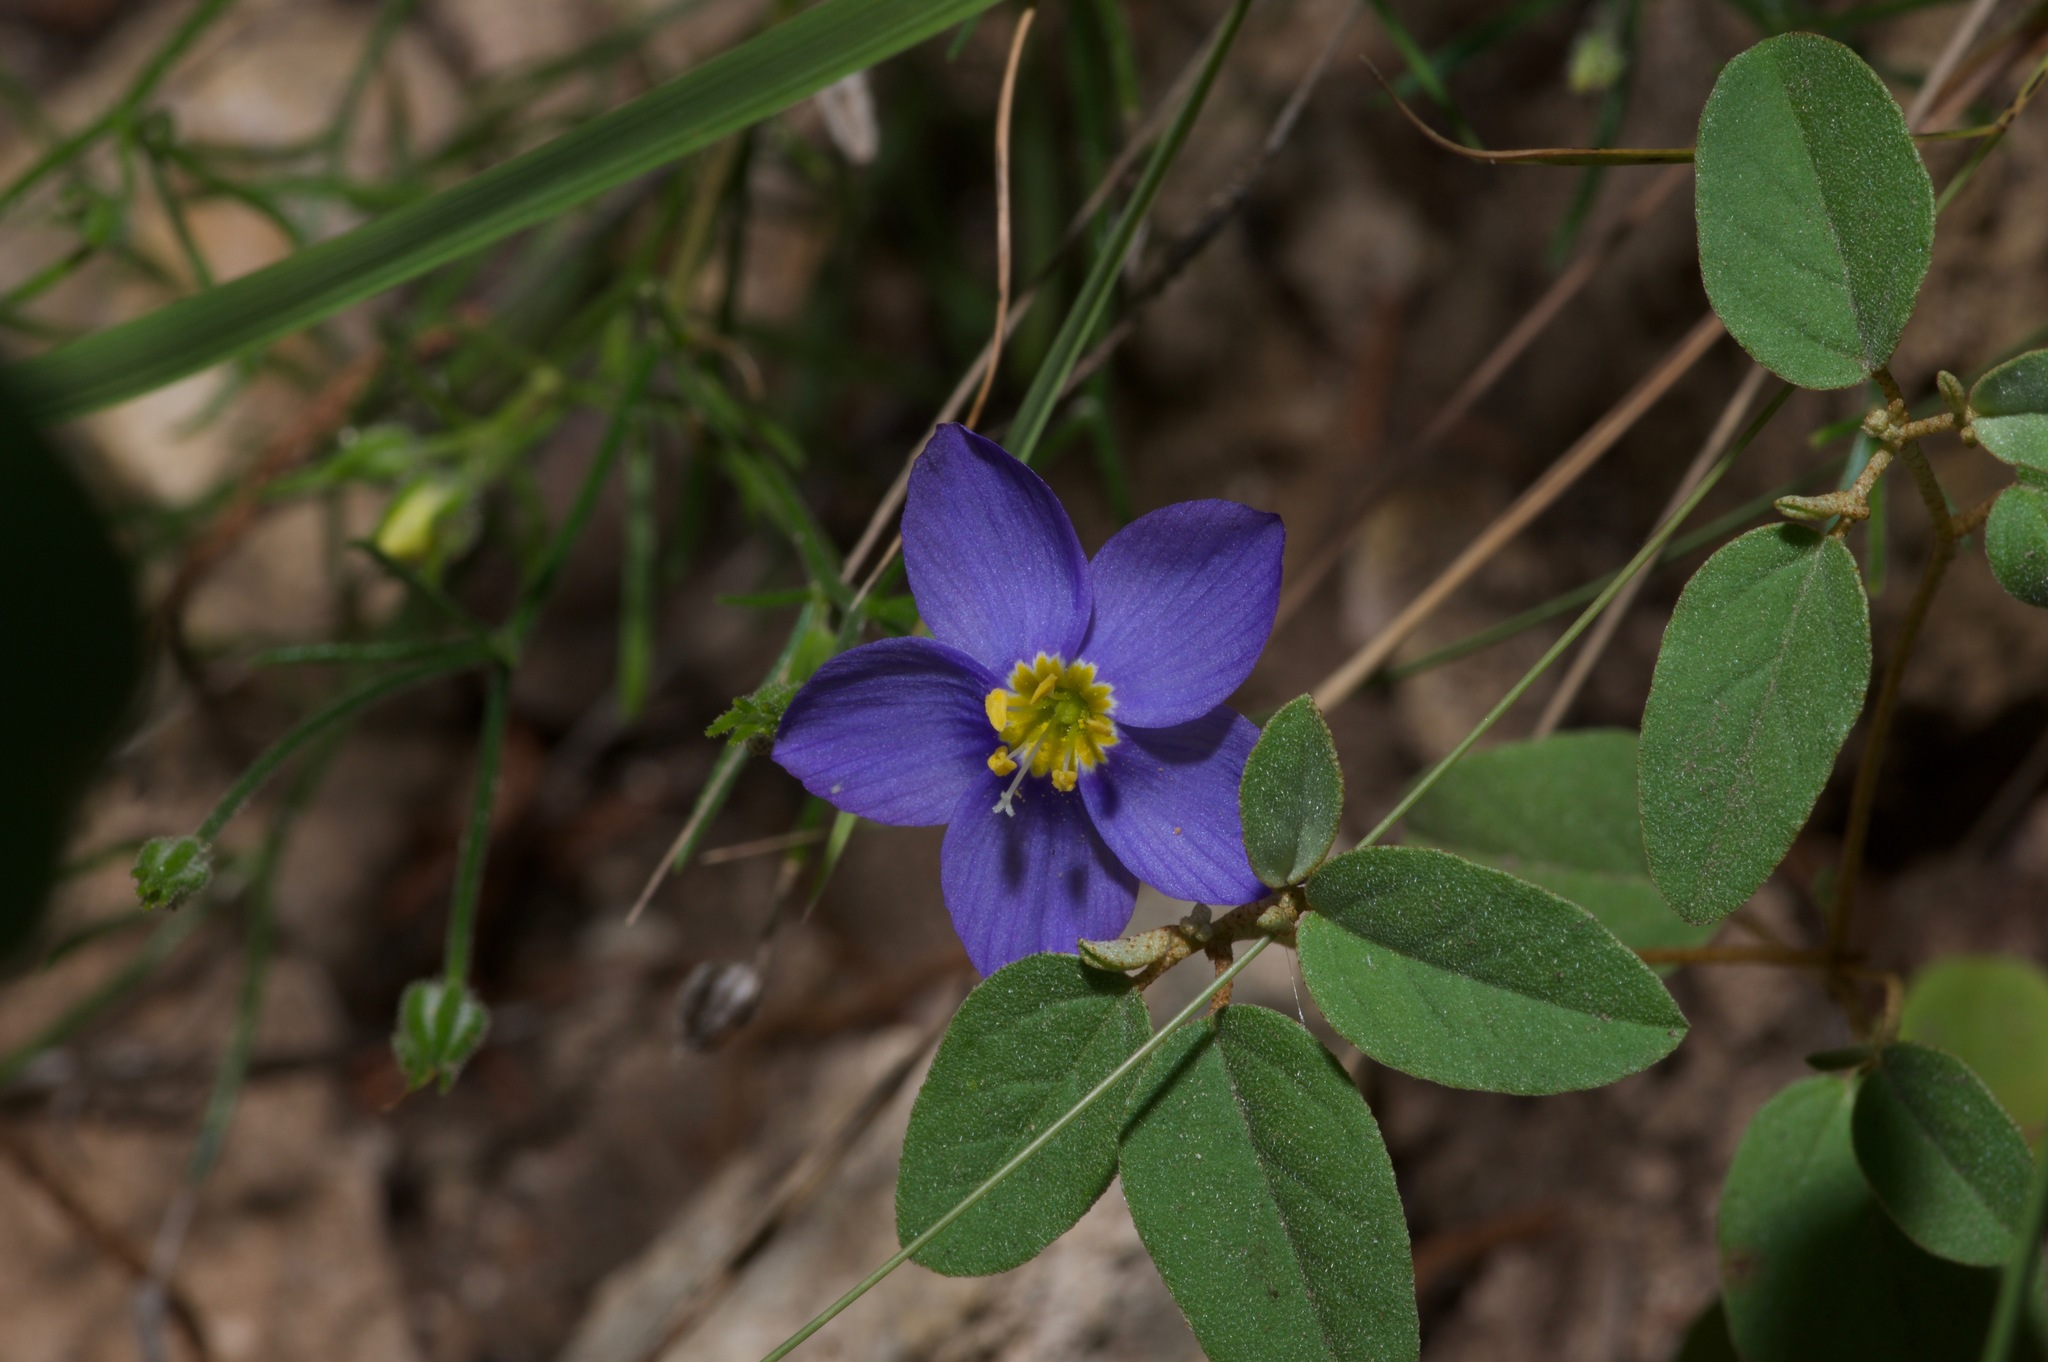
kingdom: Plantae
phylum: Tracheophyta
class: Magnoliopsida
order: Ericales
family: Polemoniaceae
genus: Giliastrum
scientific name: Giliastrum rigidulum
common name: Bluebowls
